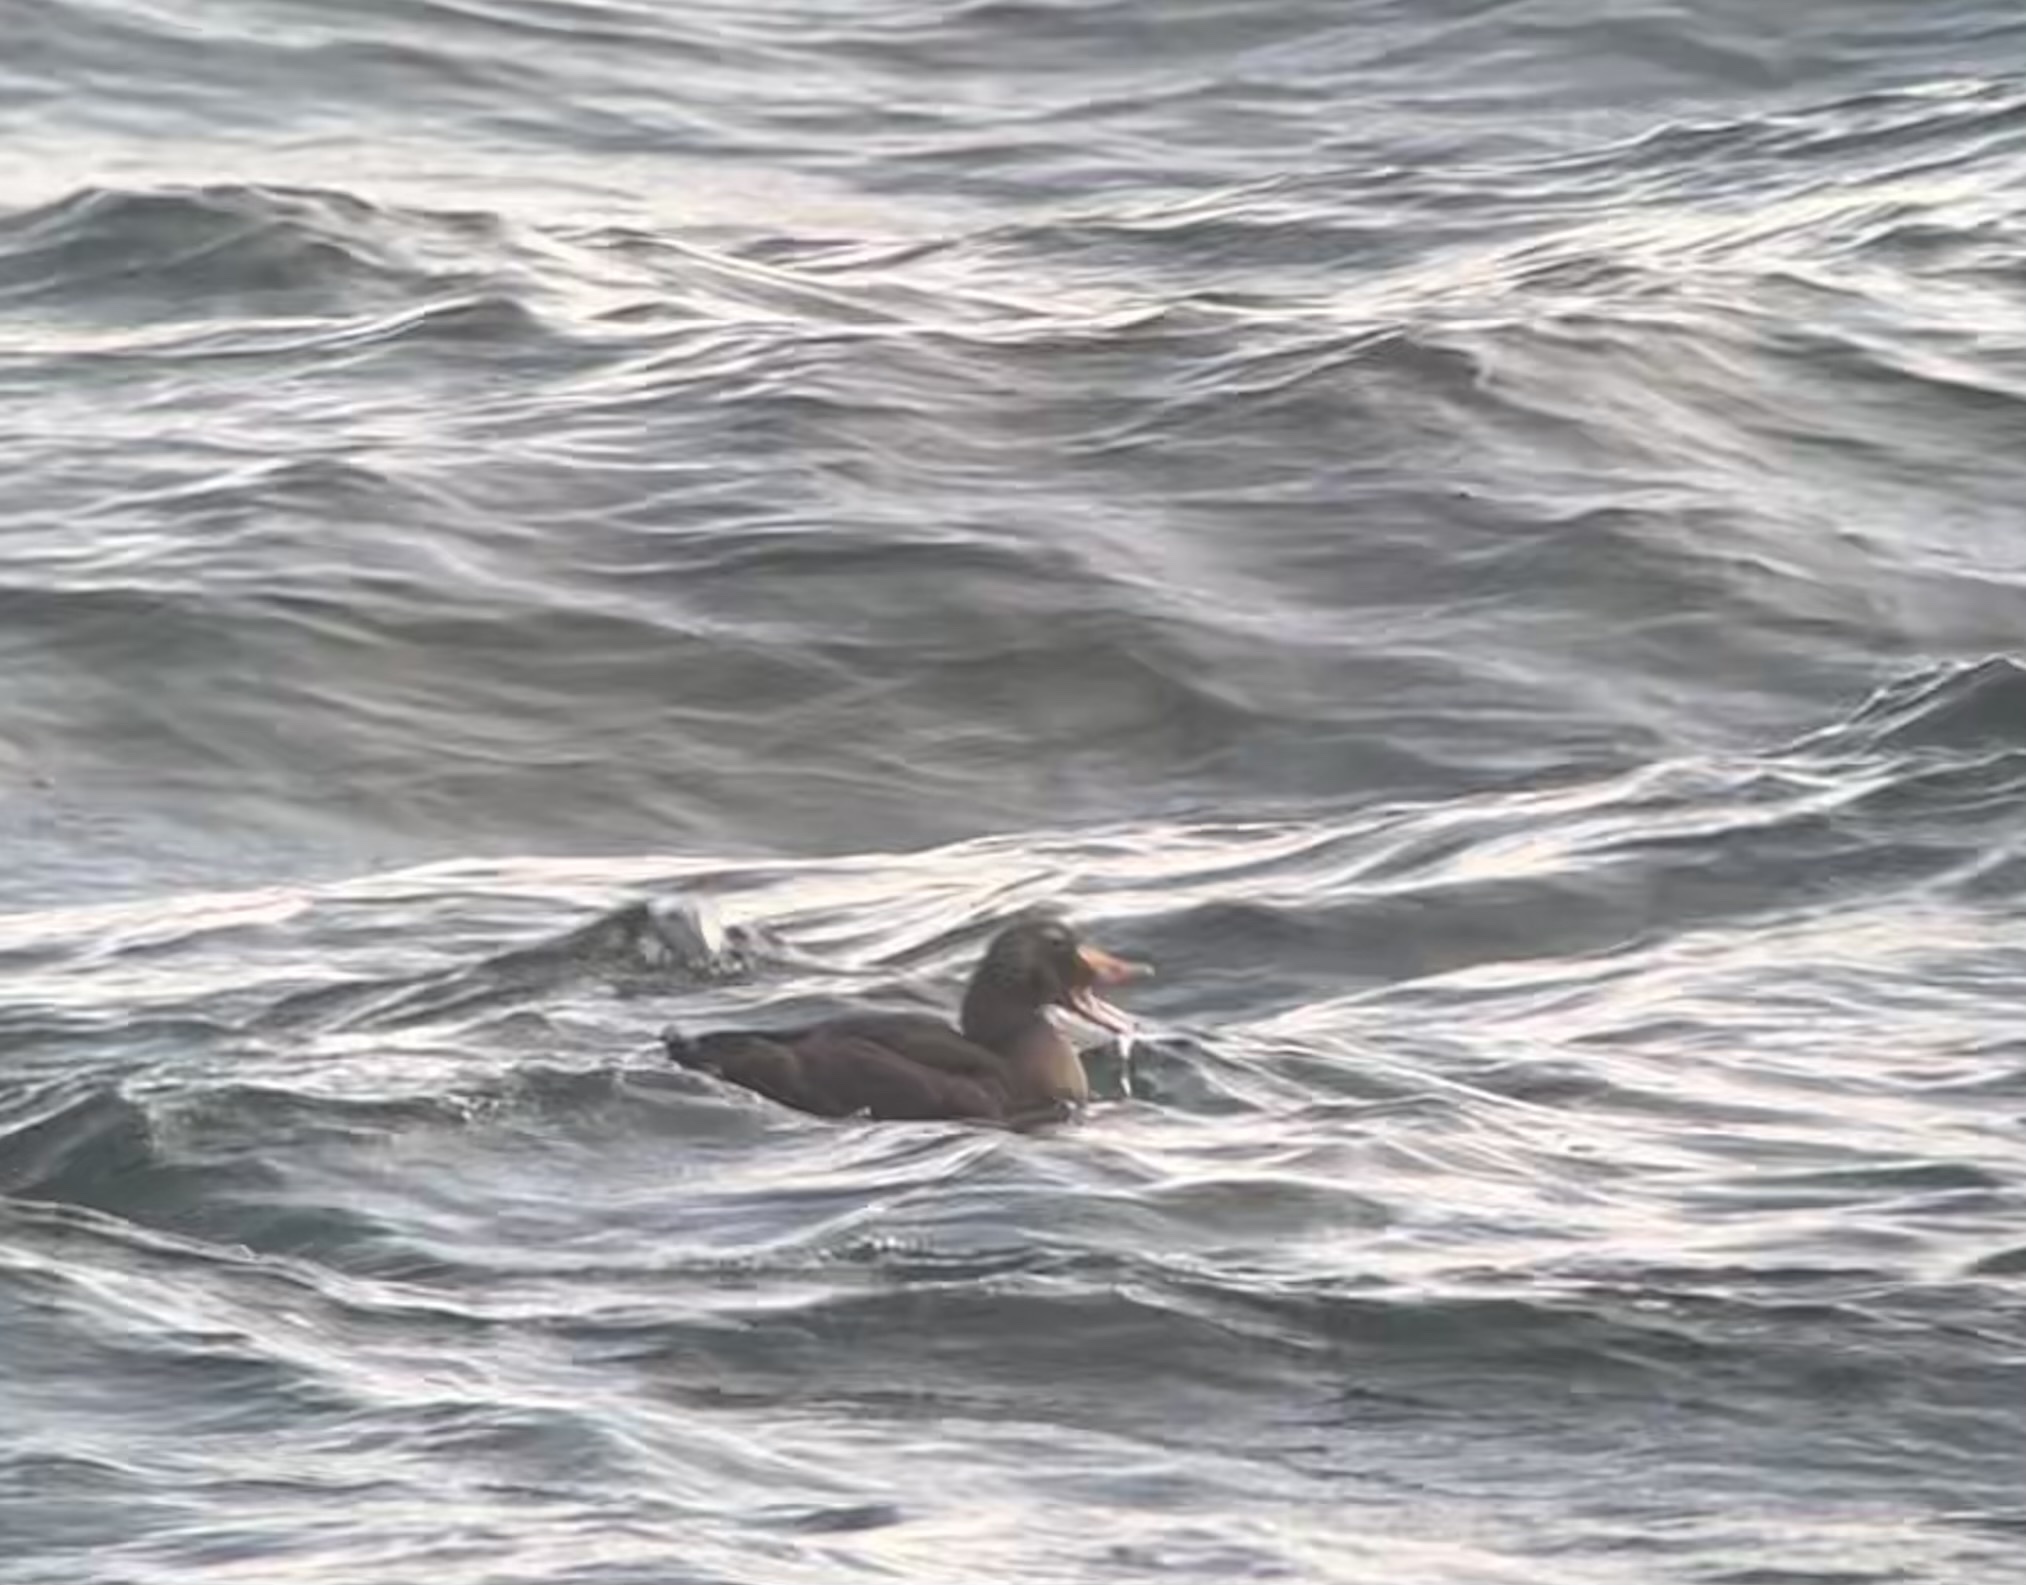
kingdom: Animalia
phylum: Chordata
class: Aves
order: Anseriformes
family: Anatidae
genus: Somateria
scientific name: Somateria spectabilis
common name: King eider
